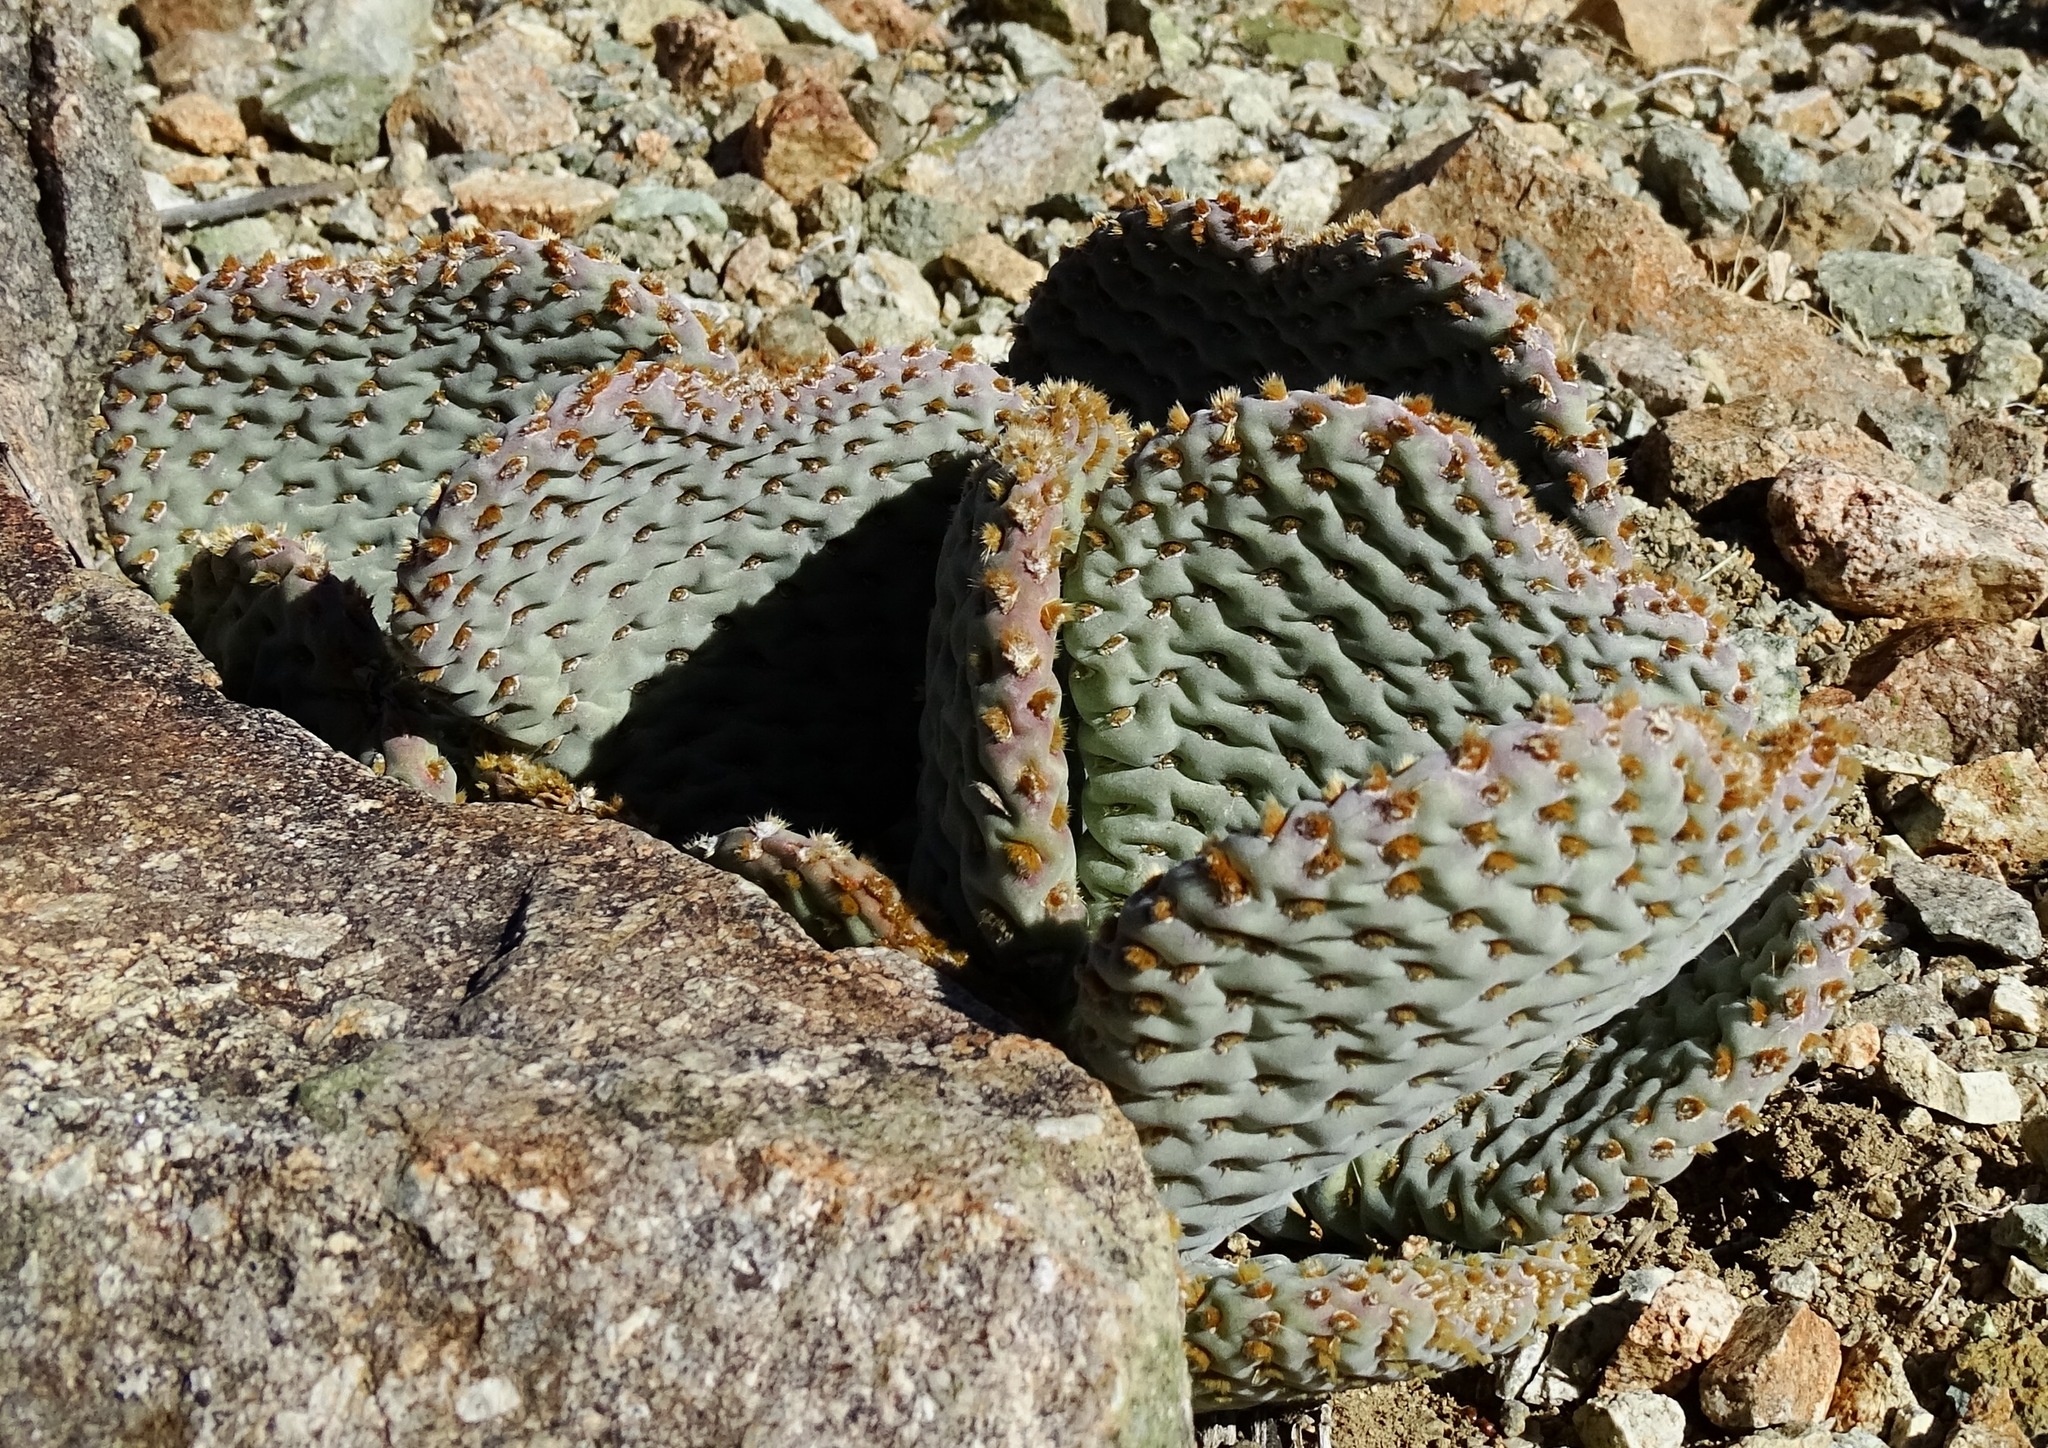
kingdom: Plantae
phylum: Tracheophyta
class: Magnoliopsida
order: Caryophyllales
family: Cactaceae
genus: Opuntia
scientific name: Opuntia basilaris
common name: Beavertail prickly-pear
